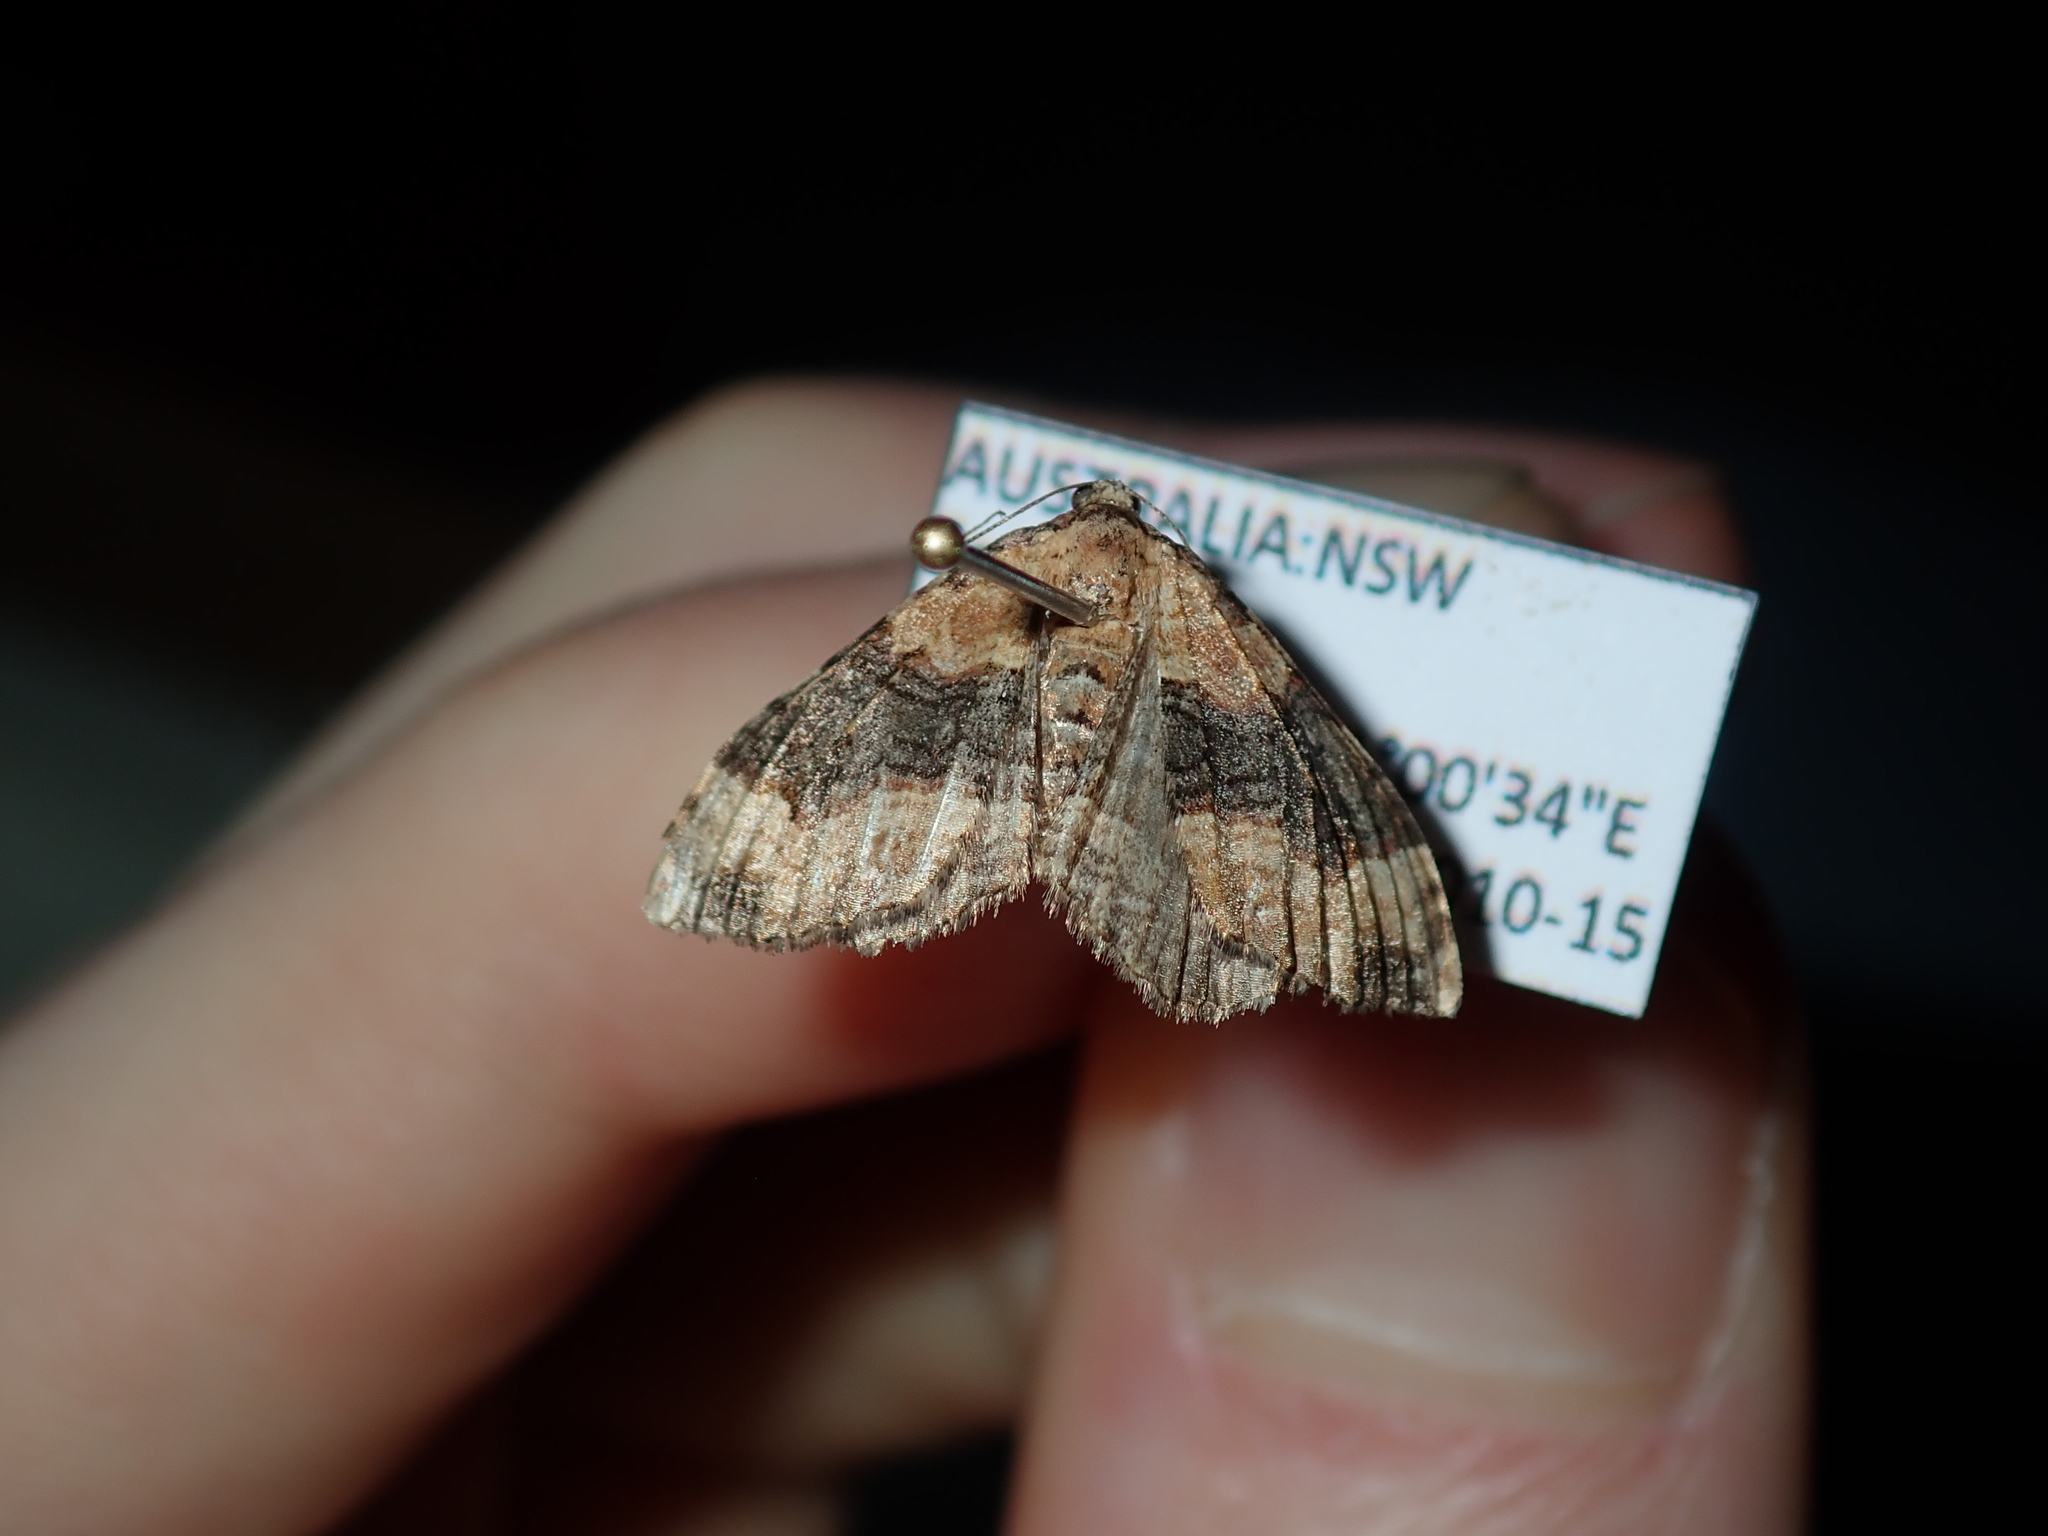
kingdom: Animalia
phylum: Arthropoda
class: Insecta
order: Lepidoptera
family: Geometridae
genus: Epyaxa
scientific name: Epyaxa subidaria
